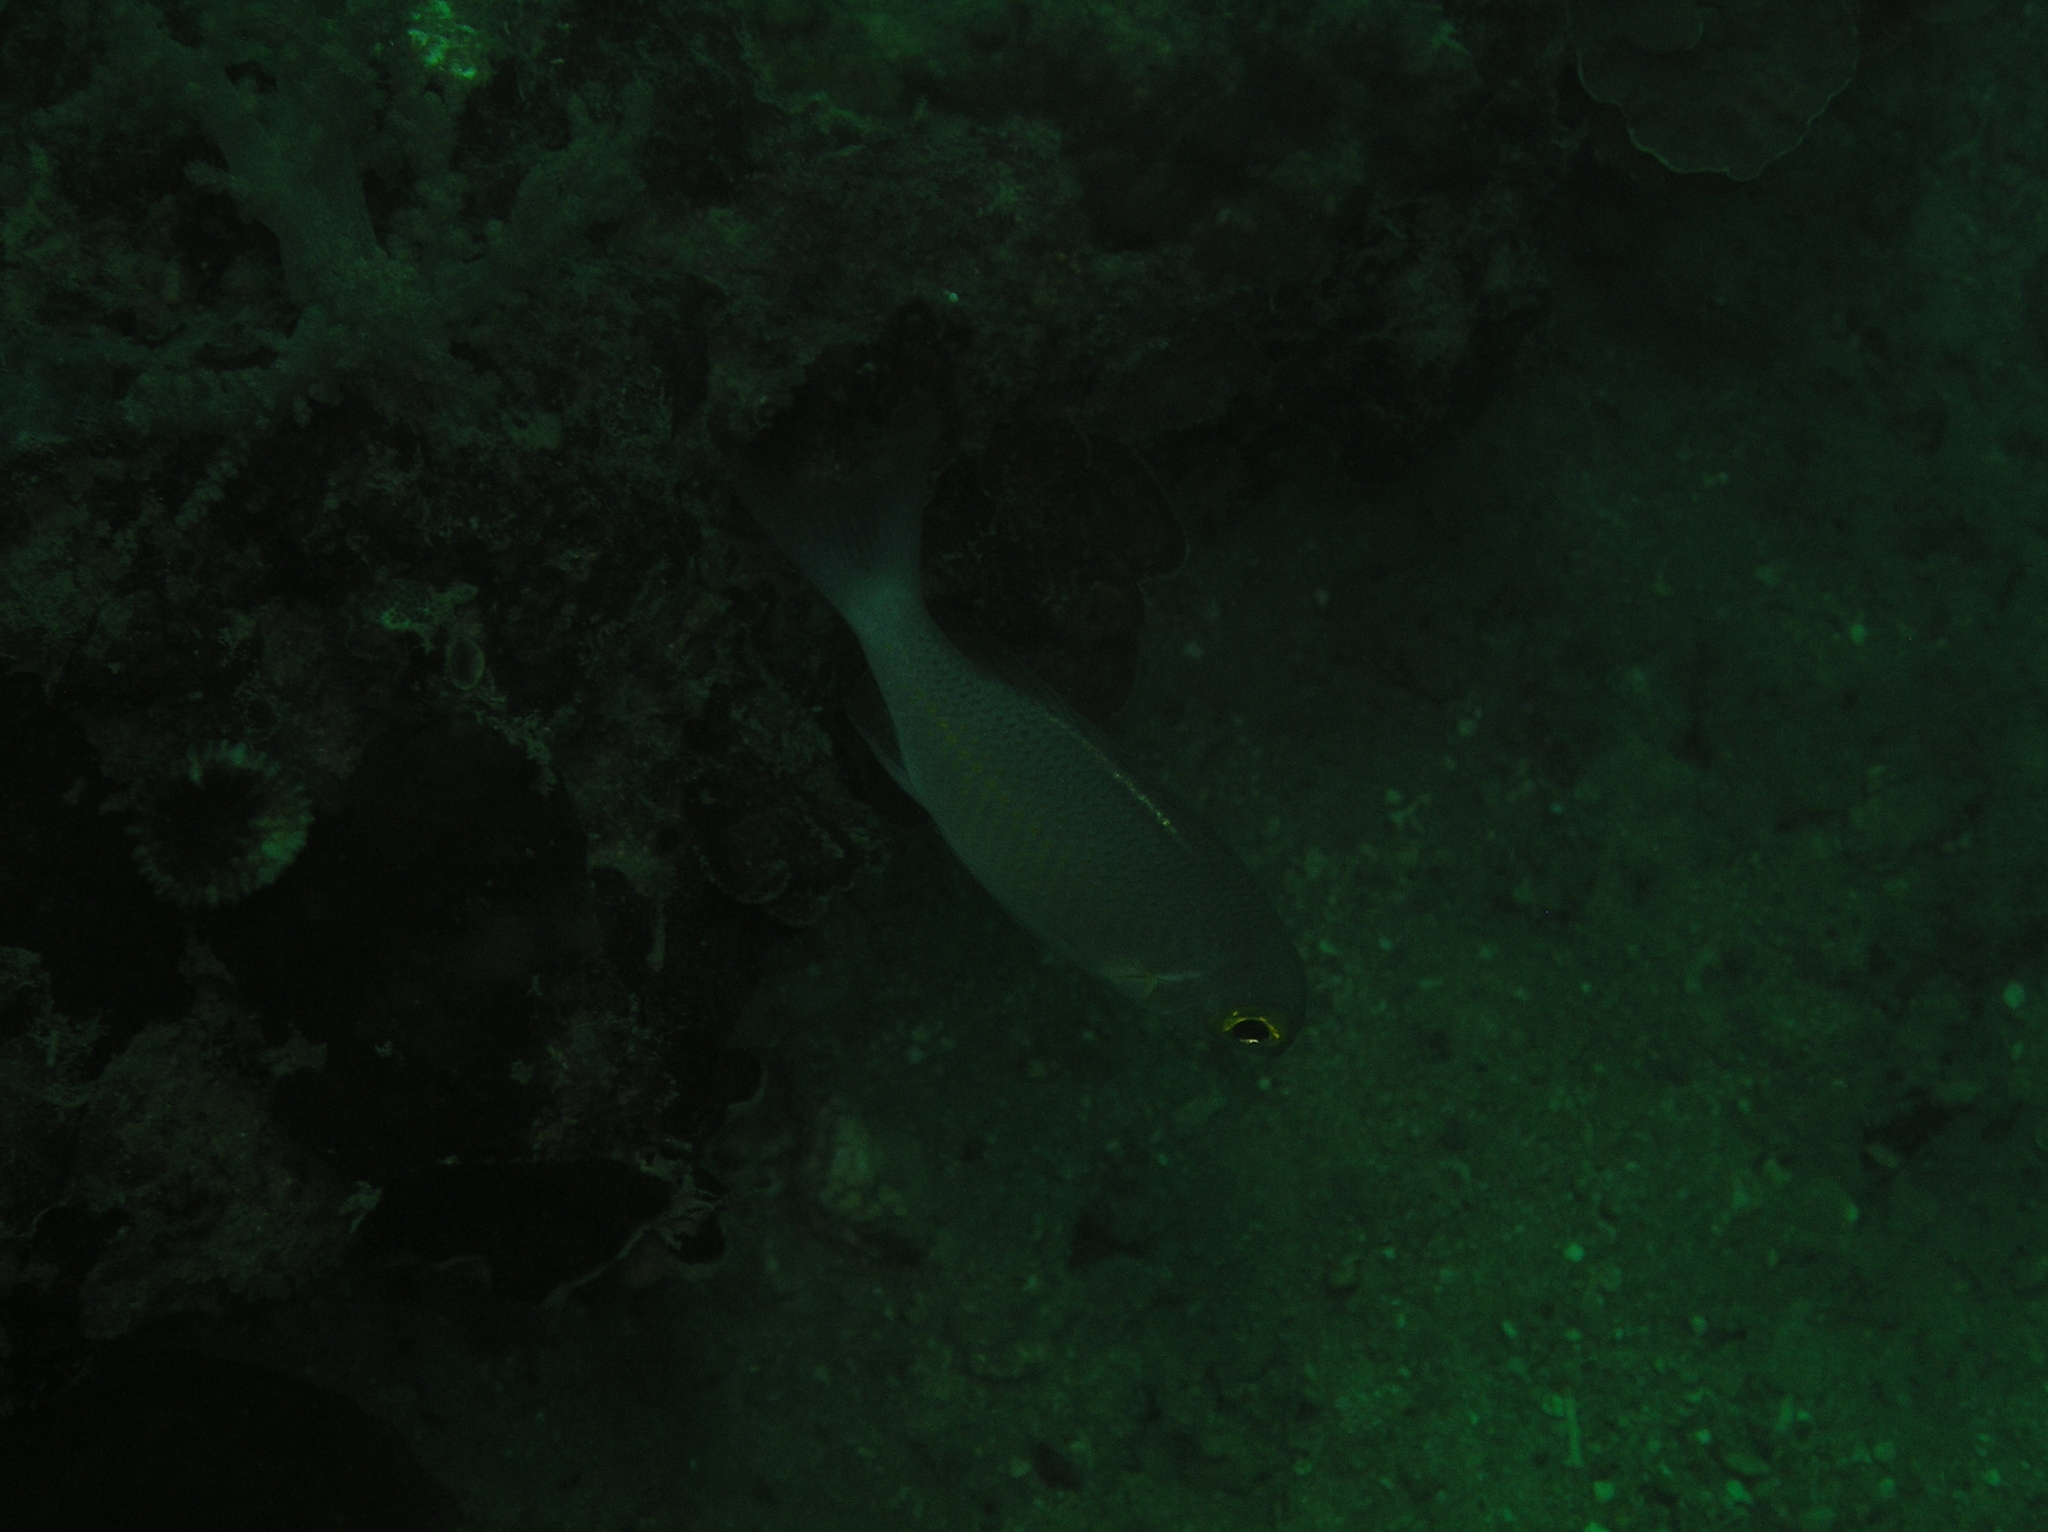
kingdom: Animalia
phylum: Chordata
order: Perciformes
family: Nemipteridae
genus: Scolopsis
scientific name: Scolopsis ciliata
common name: Ciliate spinecheek
